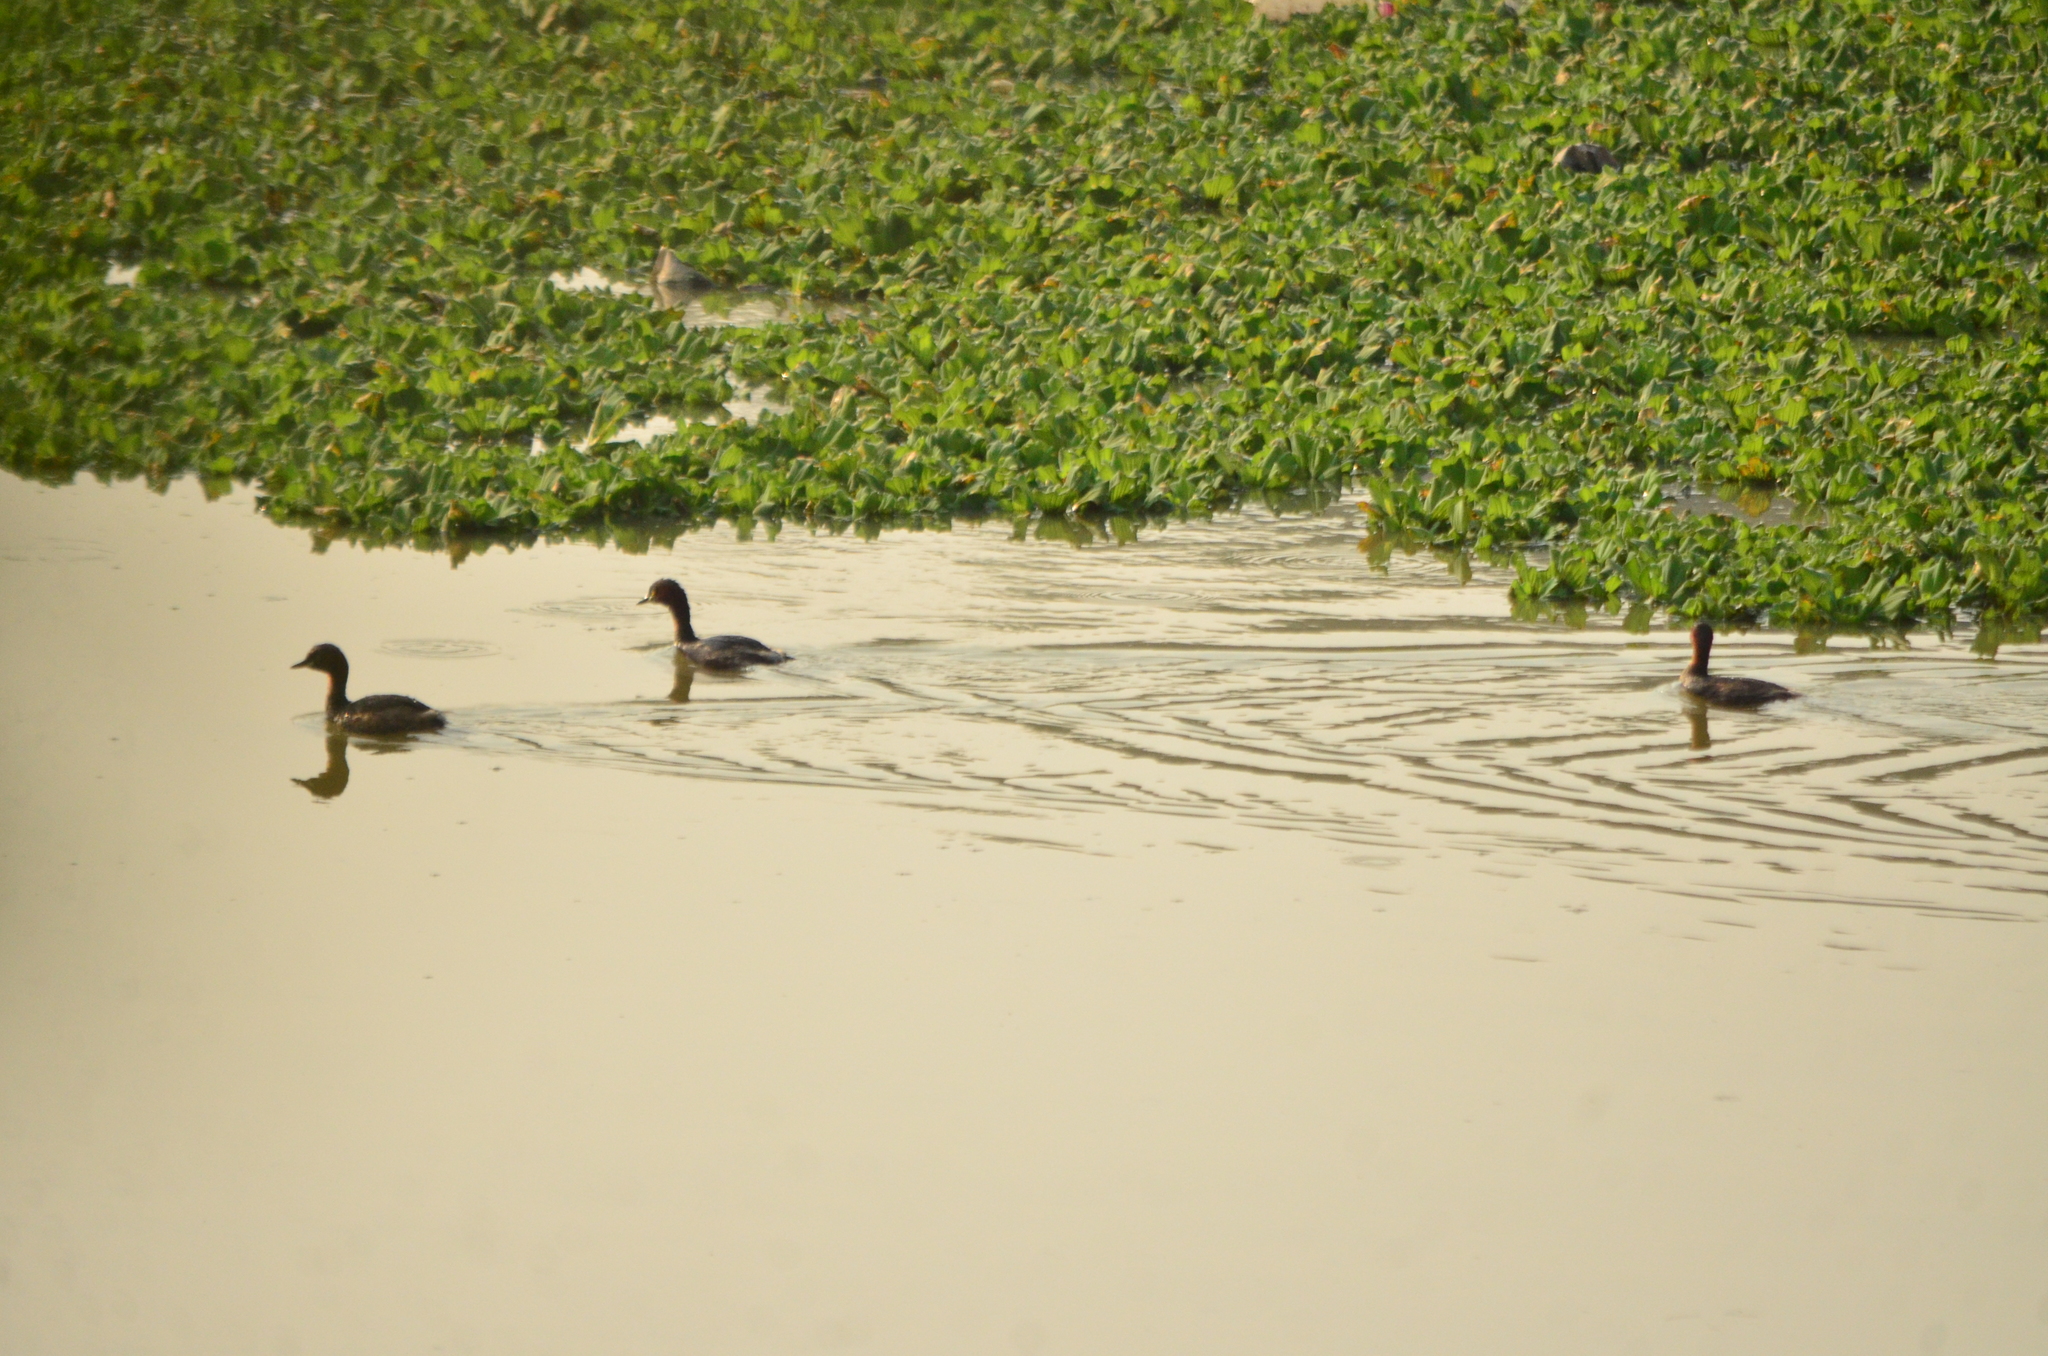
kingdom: Animalia
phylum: Chordata
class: Aves
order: Podicipediformes
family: Podicipedidae
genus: Tachybaptus
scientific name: Tachybaptus ruficollis
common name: Little grebe
